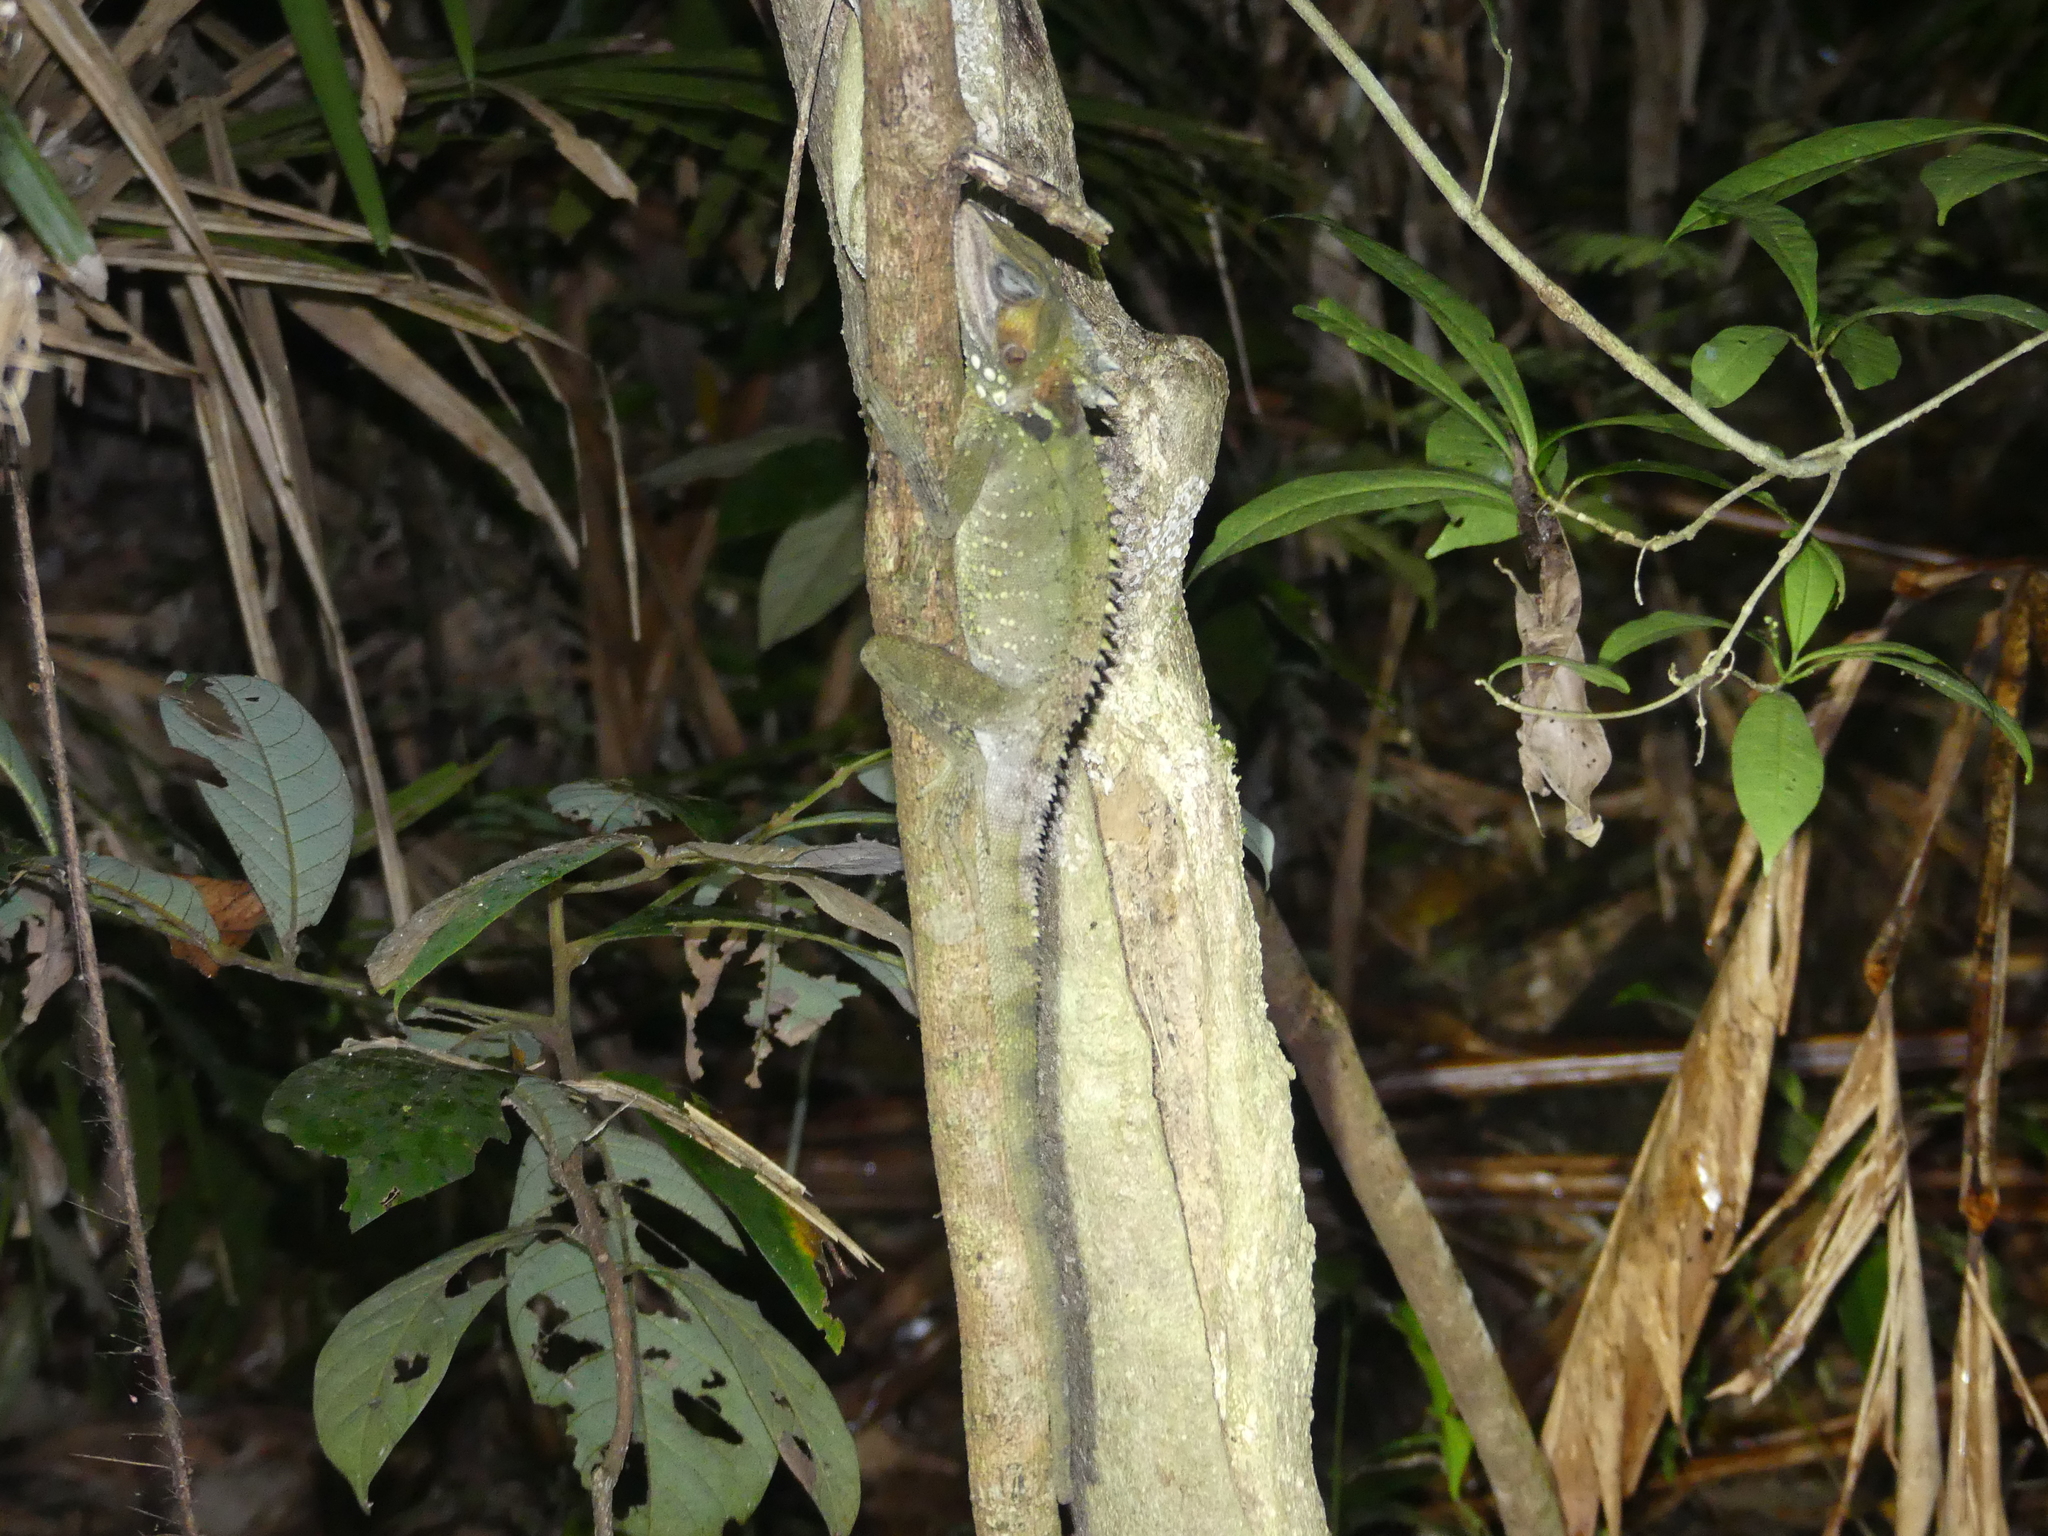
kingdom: Animalia
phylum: Chordata
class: Squamata
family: Agamidae
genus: Lophosaurus
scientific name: Lophosaurus boydii
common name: Boyd's forest dragon
